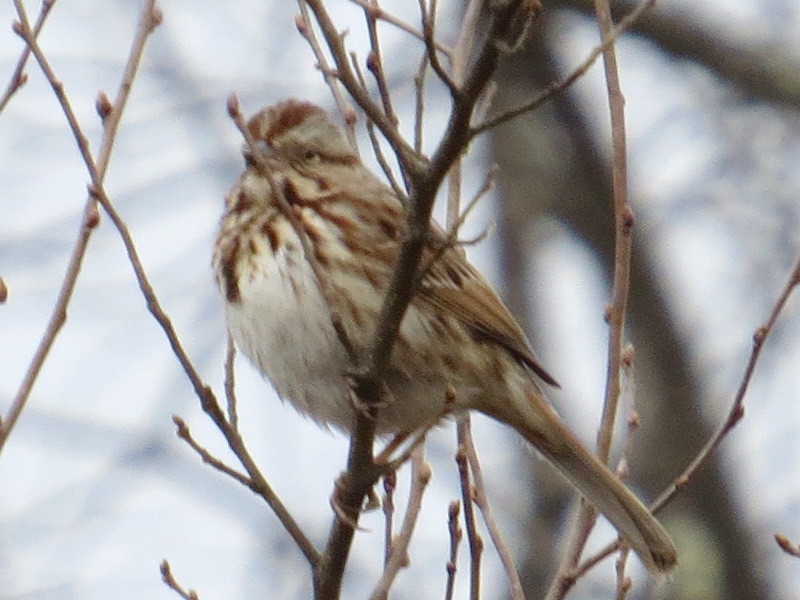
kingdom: Animalia
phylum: Chordata
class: Aves
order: Passeriformes
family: Passerellidae
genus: Melospiza
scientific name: Melospiza melodia
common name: Song sparrow
